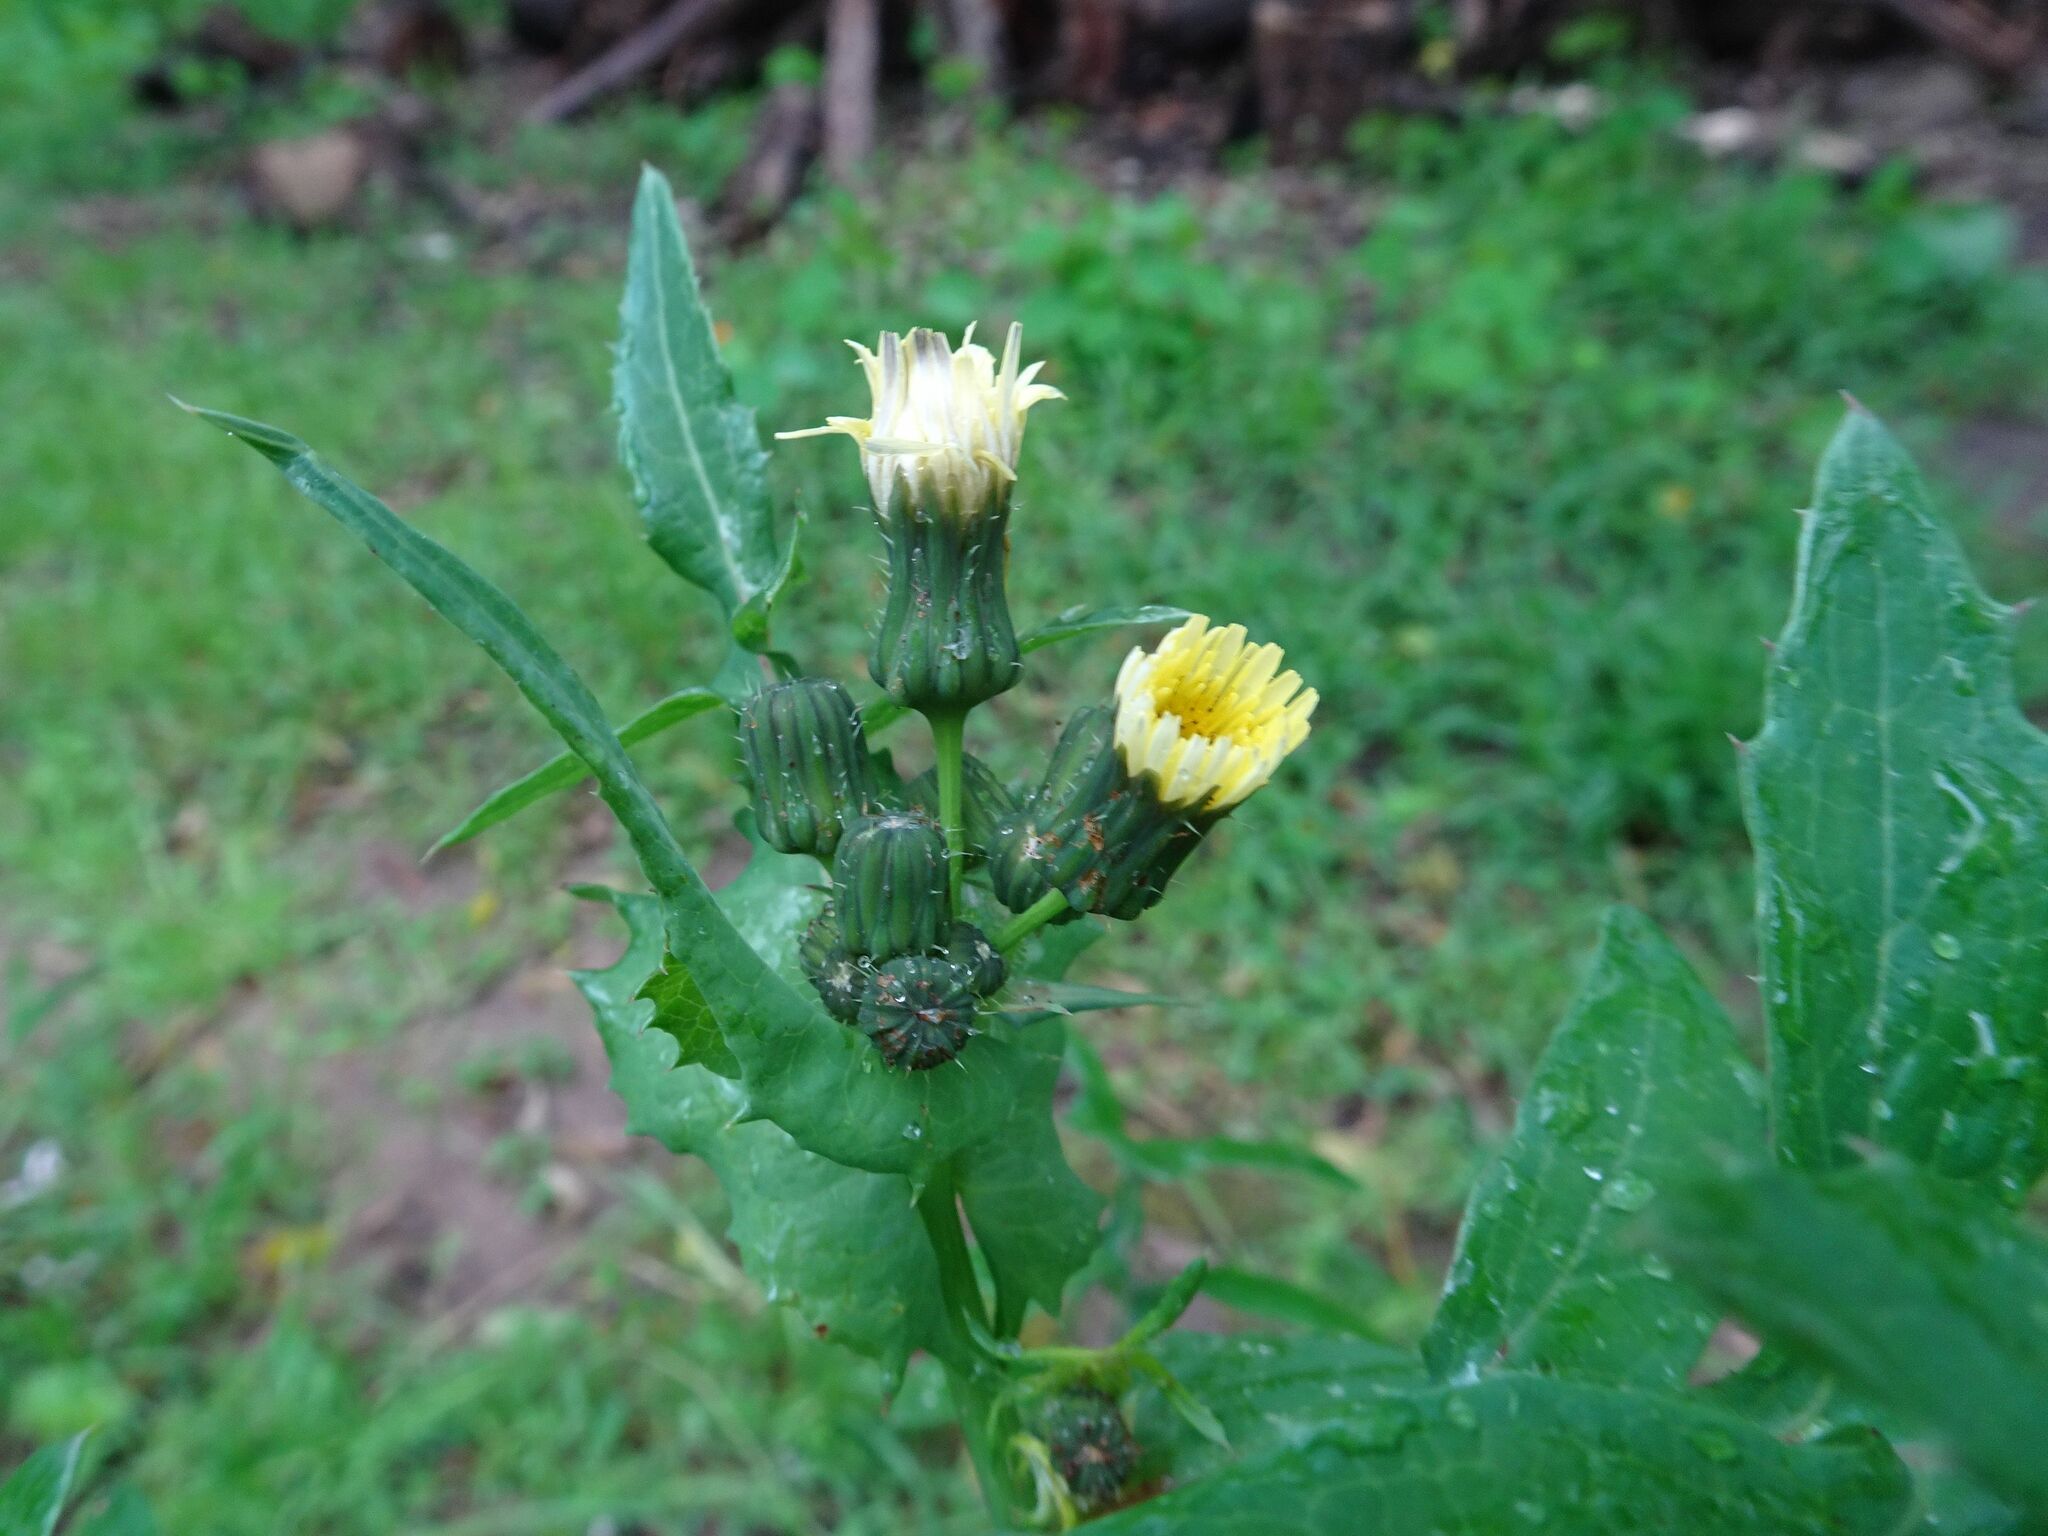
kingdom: Plantae
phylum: Tracheophyta
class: Magnoliopsida
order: Asterales
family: Asteraceae
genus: Sonchus
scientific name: Sonchus oleraceus
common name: Common sowthistle
